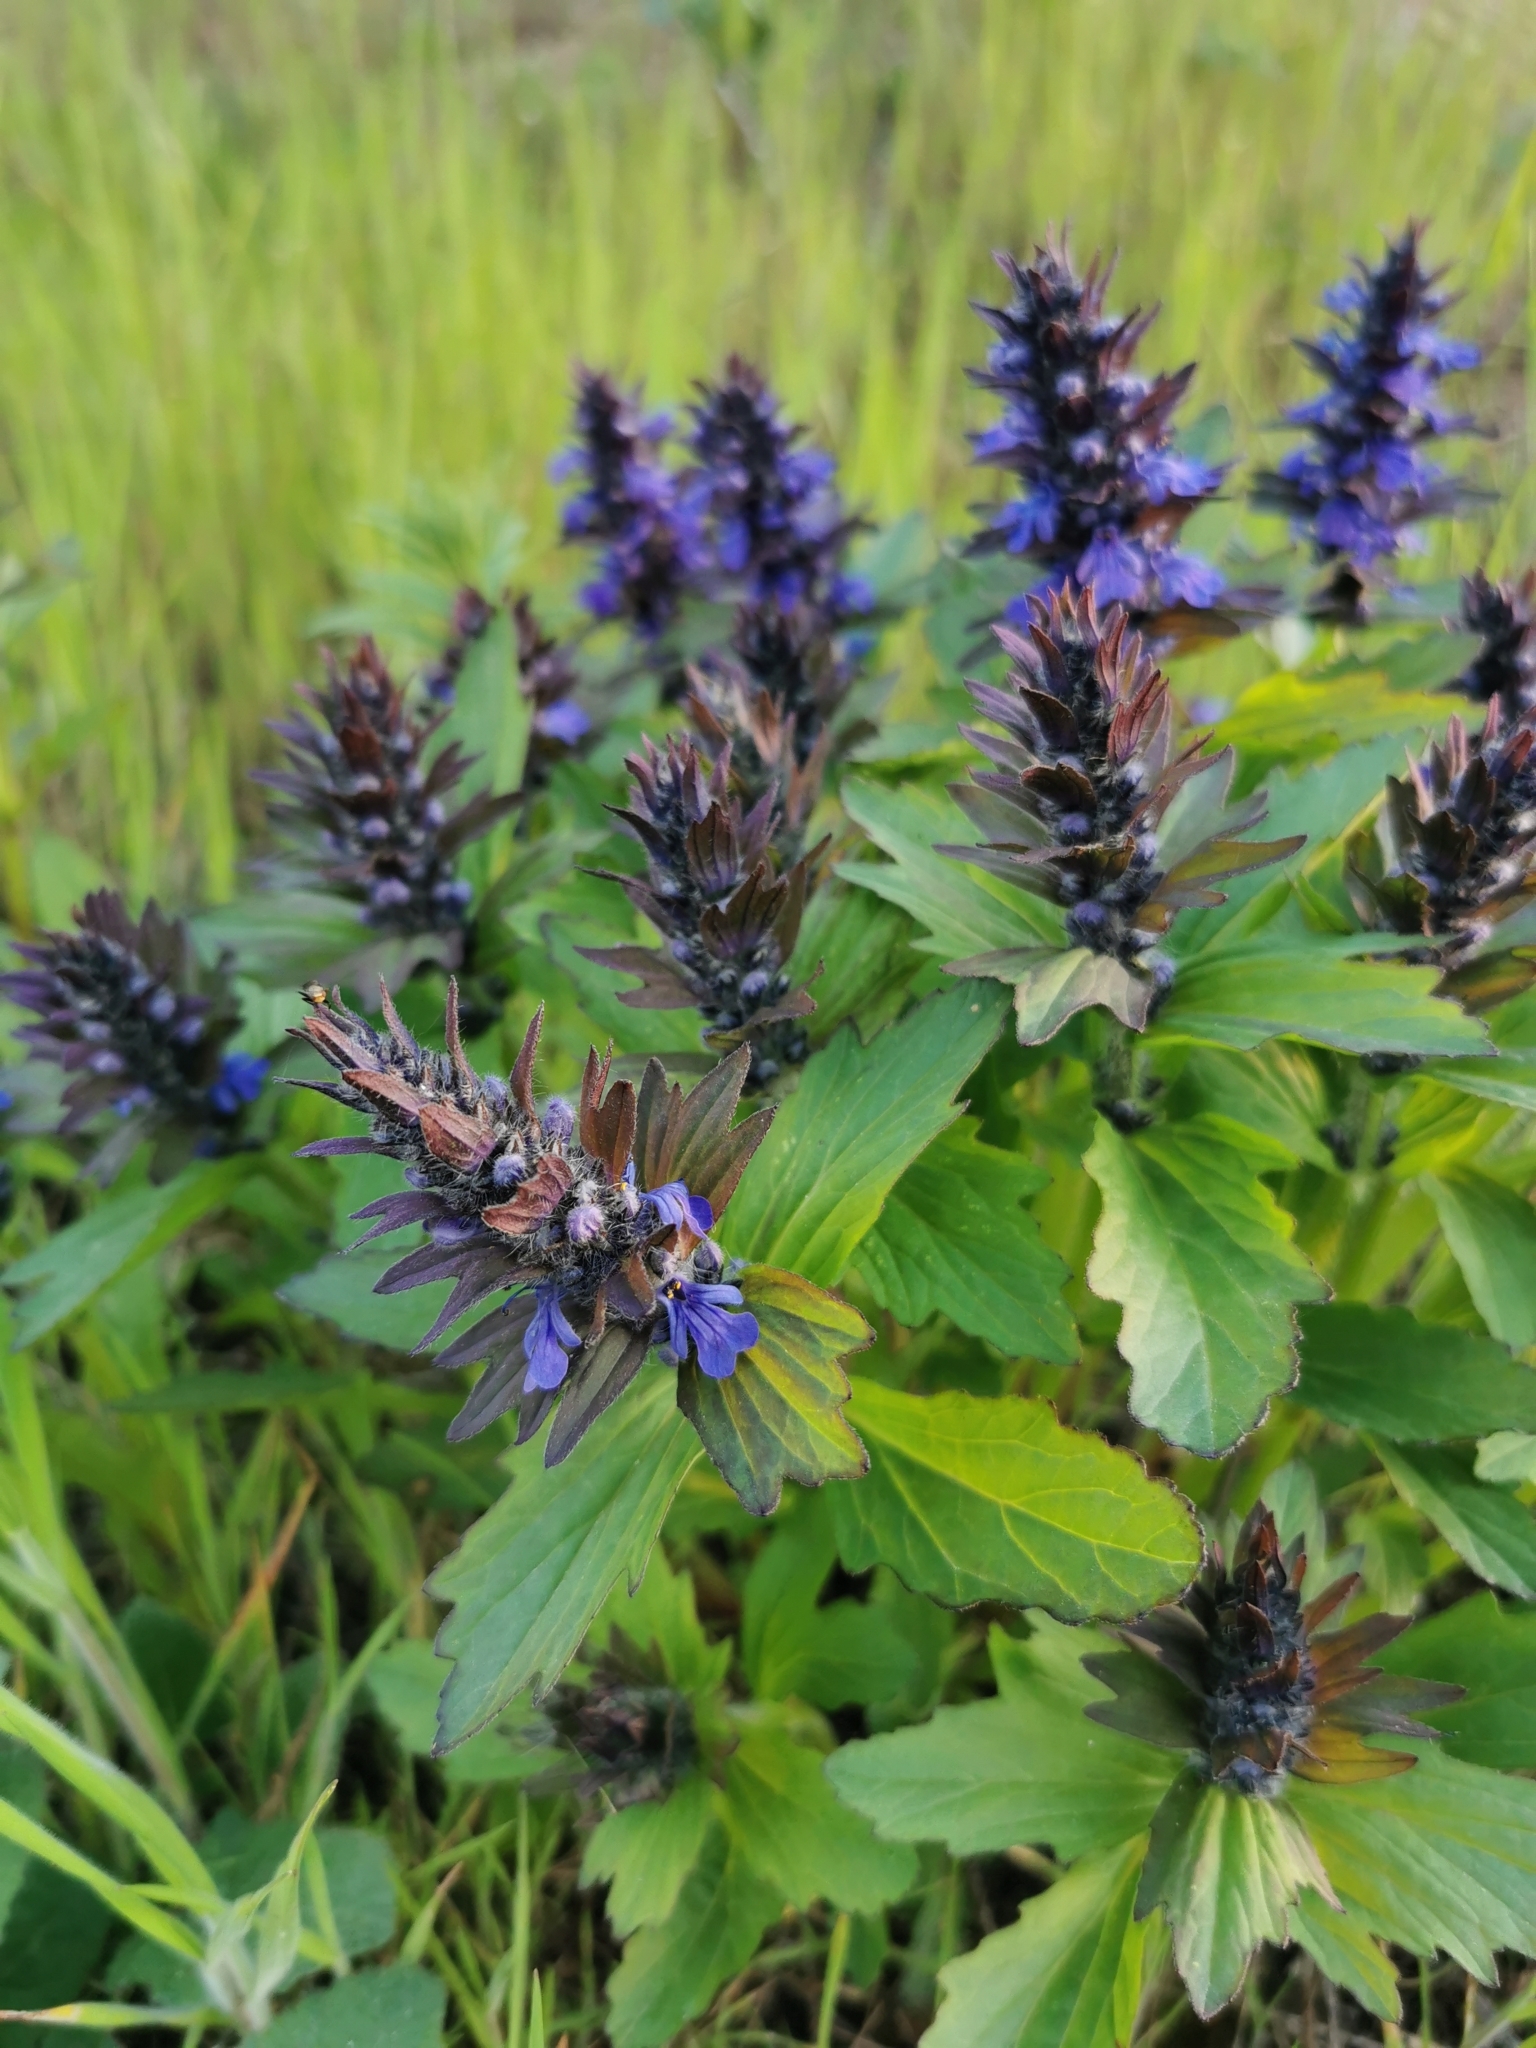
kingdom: Plantae
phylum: Tracheophyta
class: Magnoliopsida
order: Lamiales
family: Lamiaceae
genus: Ajuga
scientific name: Ajuga genevensis
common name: Blue bugle
